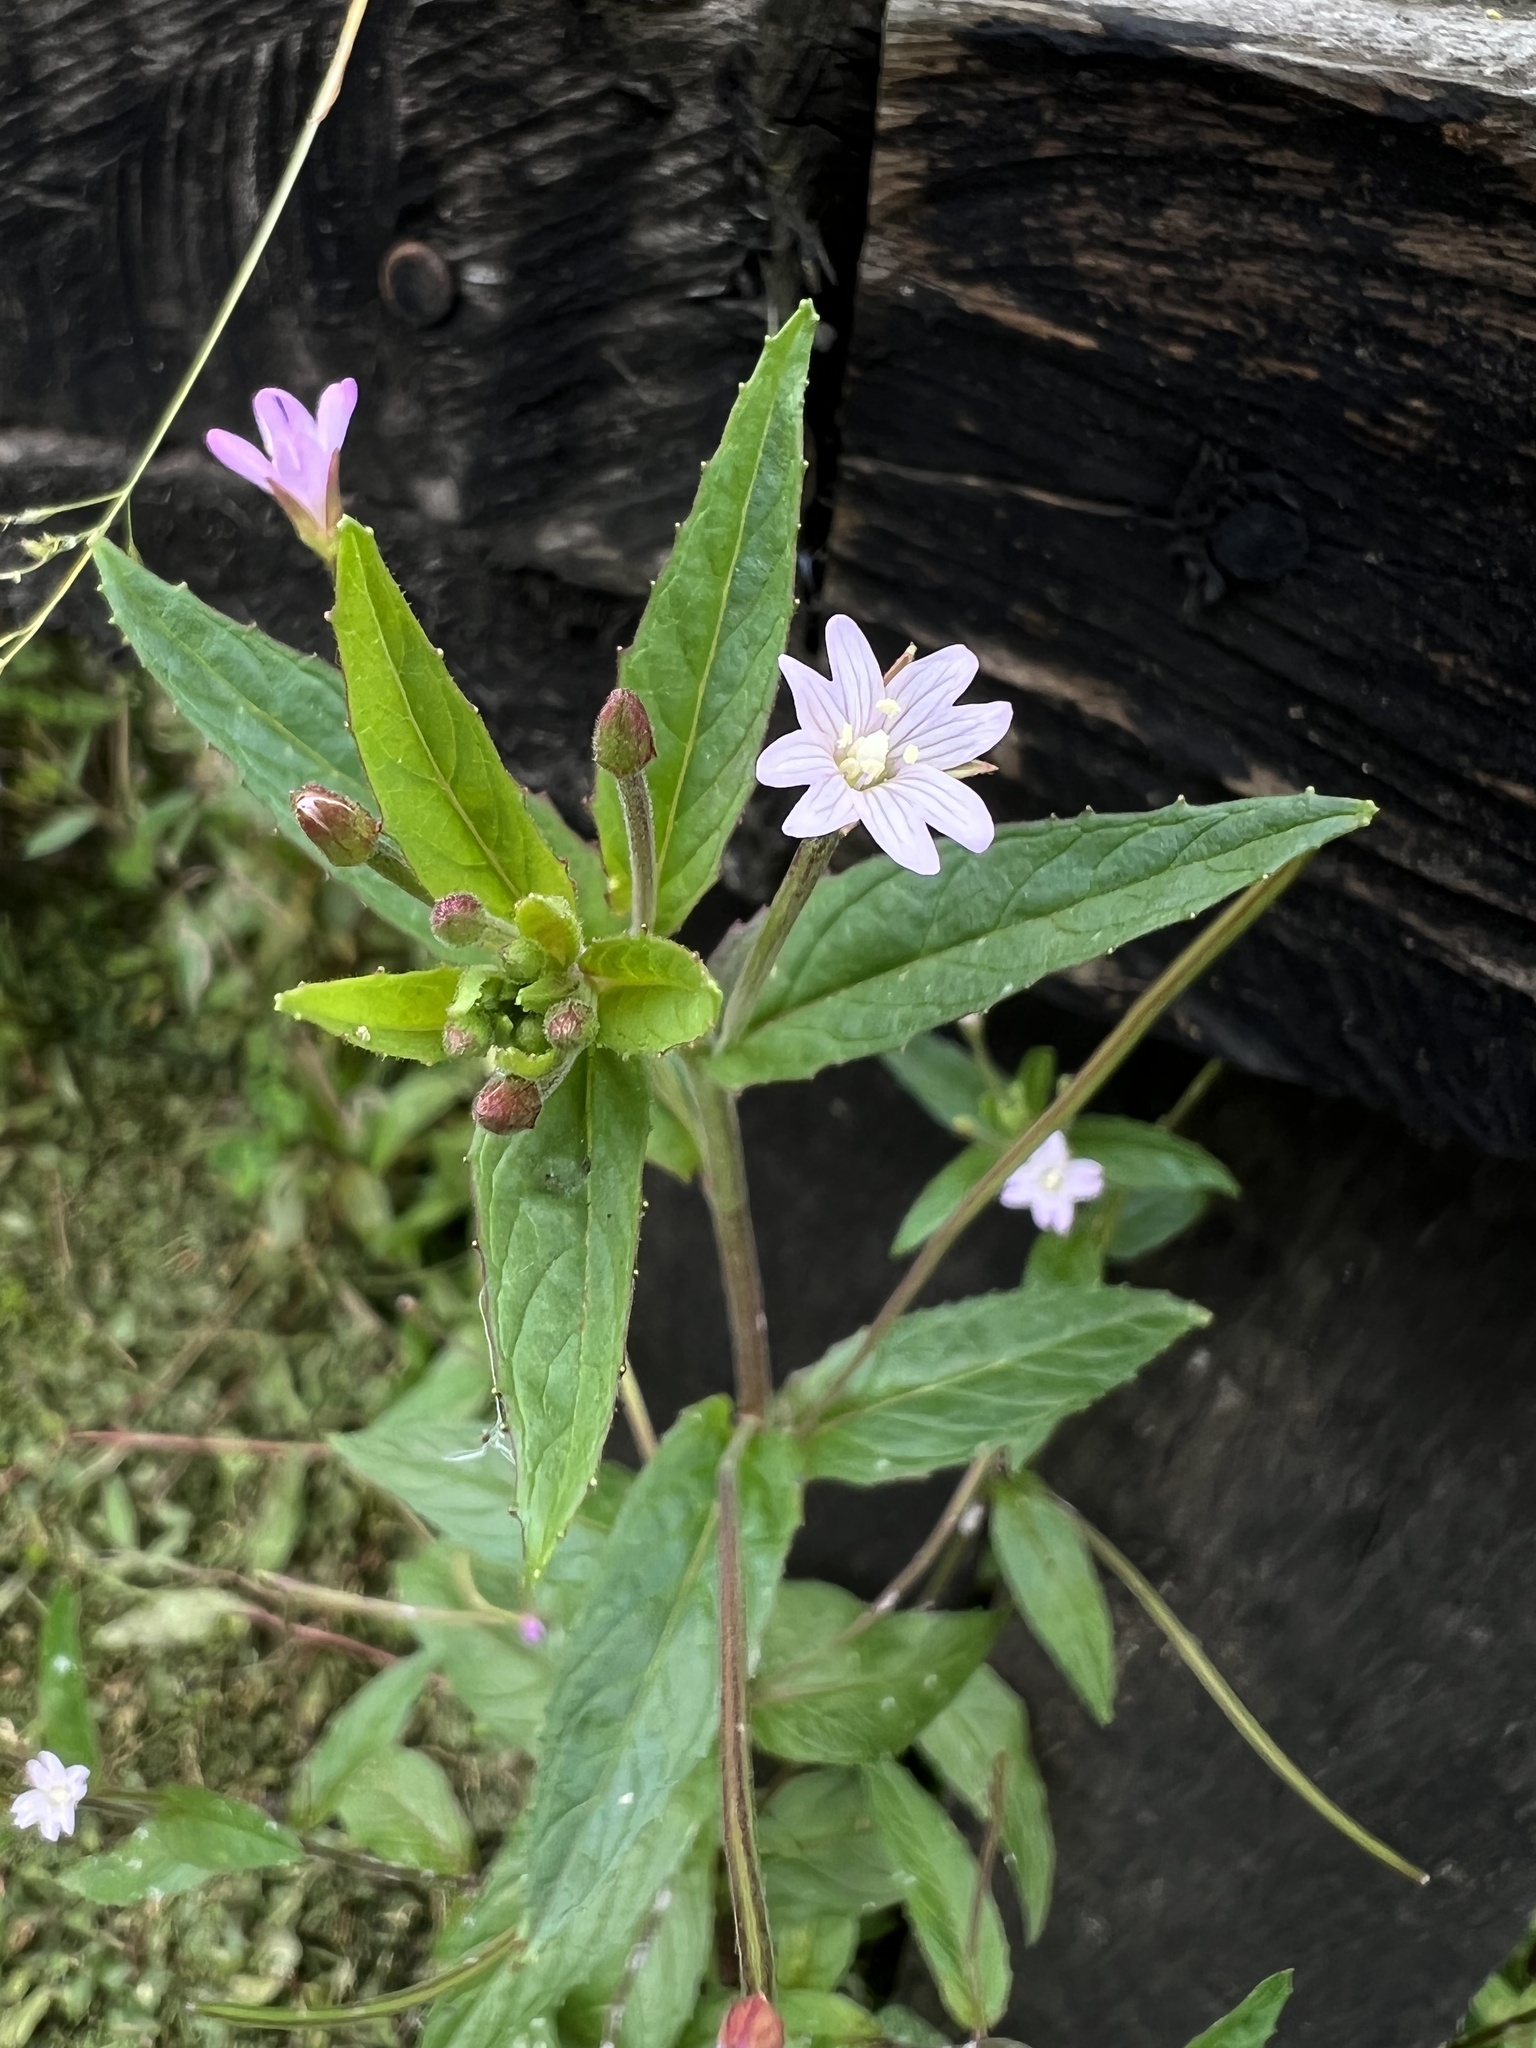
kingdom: Plantae
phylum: Tracheophyta
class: Magnoliopsida
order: Myrtales
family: Onagraceae
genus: Epilobium
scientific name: Epilobium denticulatum
